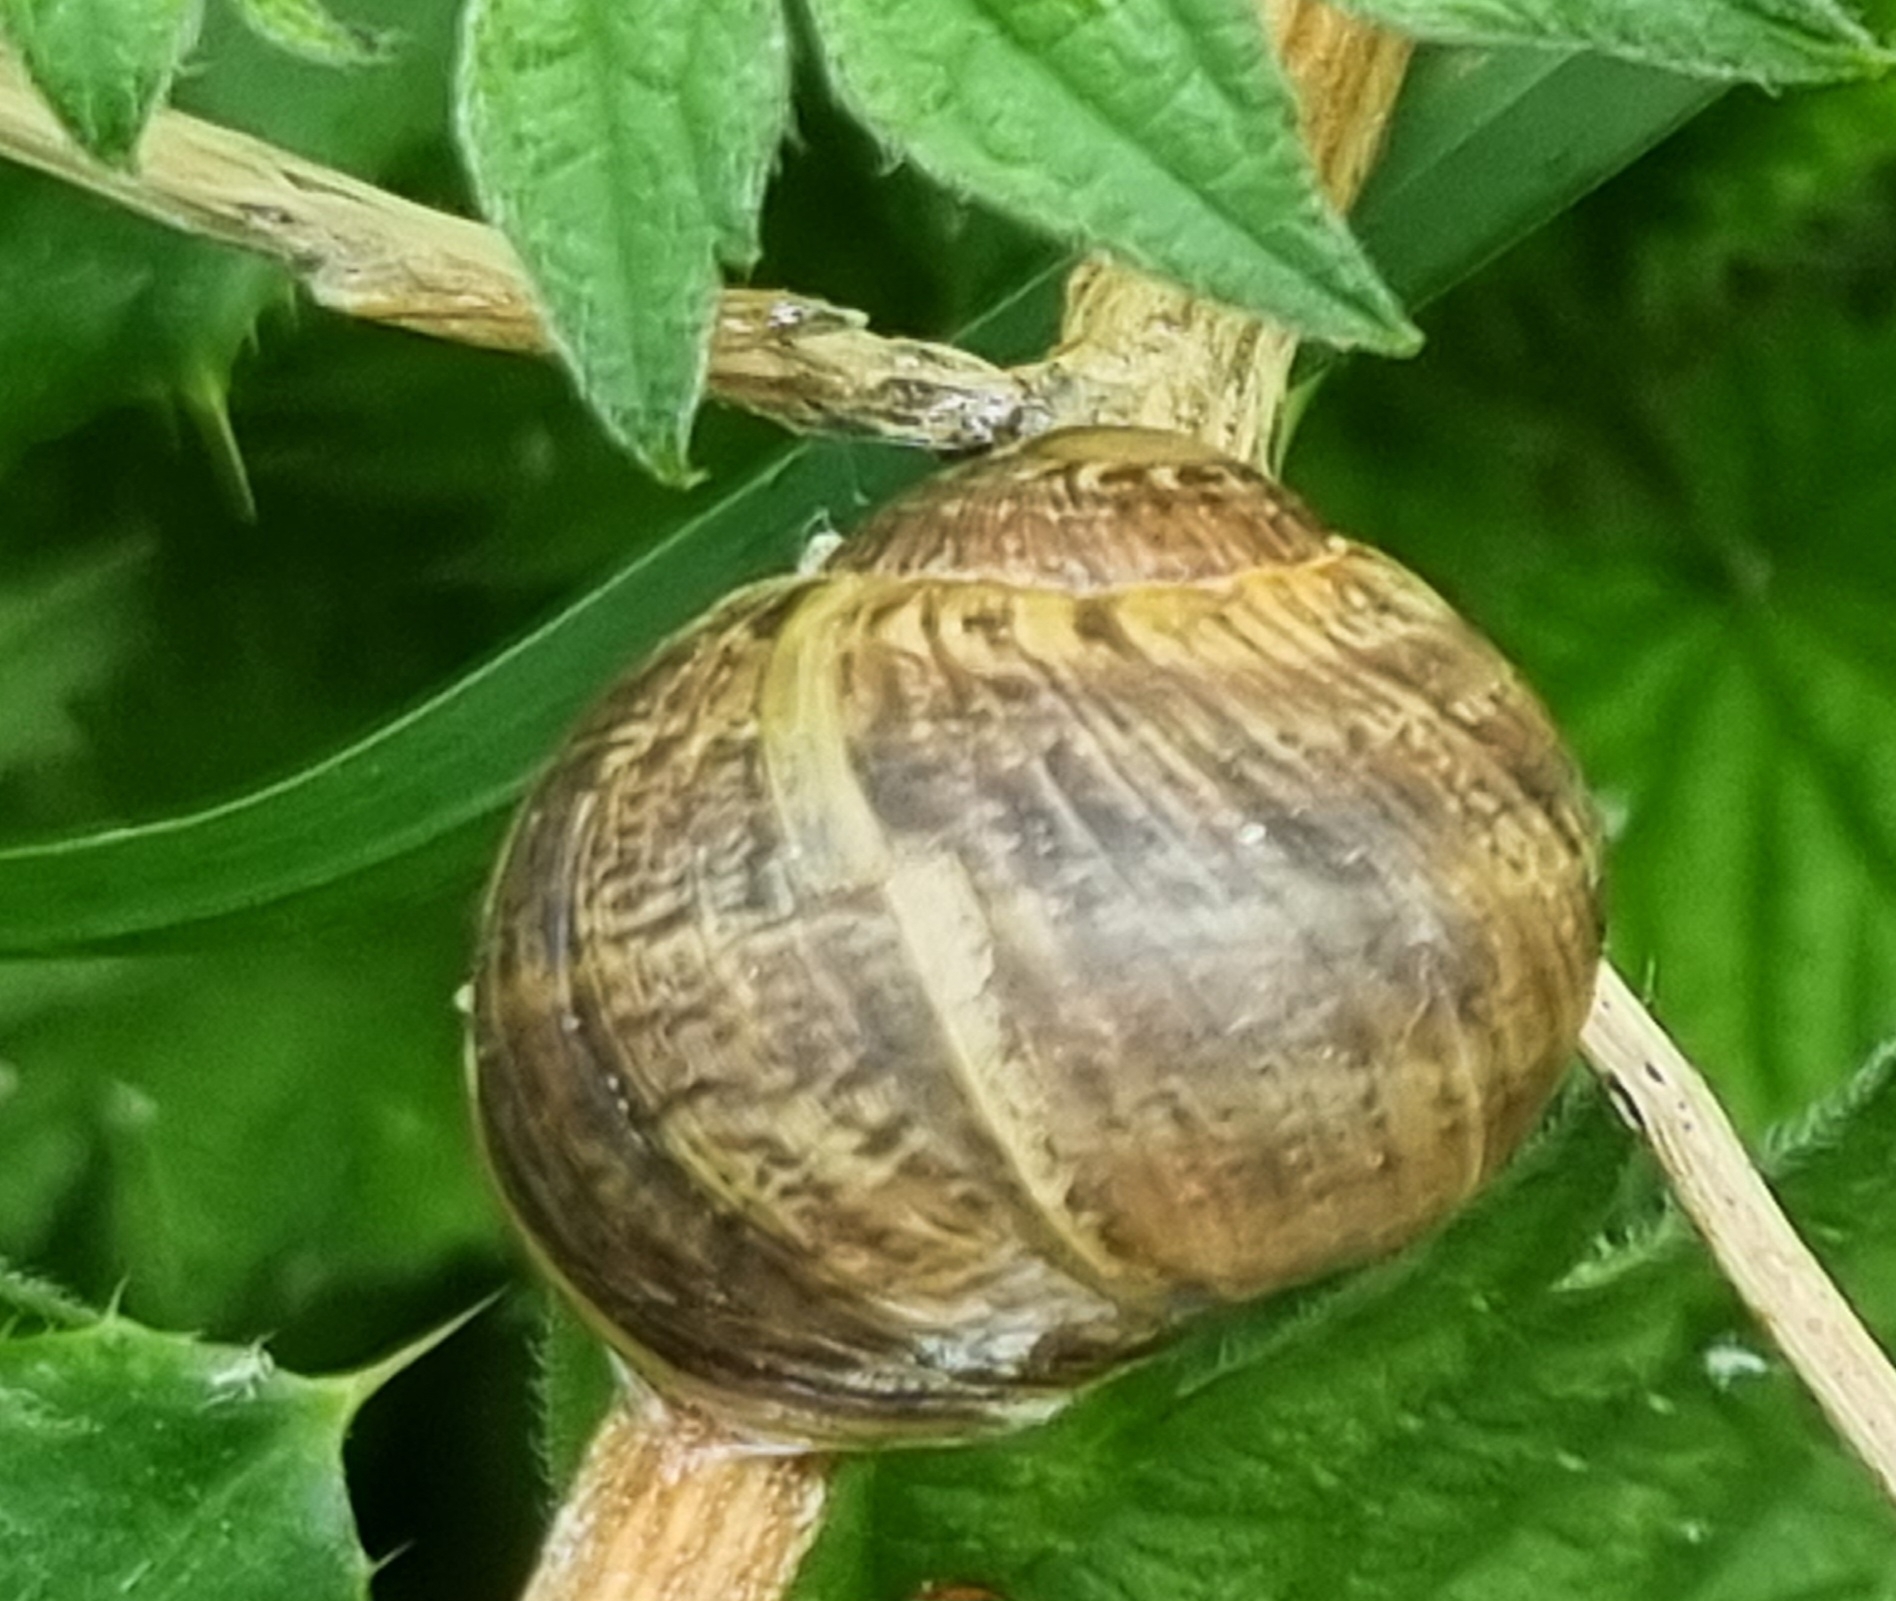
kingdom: Animalia
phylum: Mollusca
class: Gastropoda
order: Stylommatophora
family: Helicidae
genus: Cornu
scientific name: Cornu aspersum
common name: Brown garden snail
